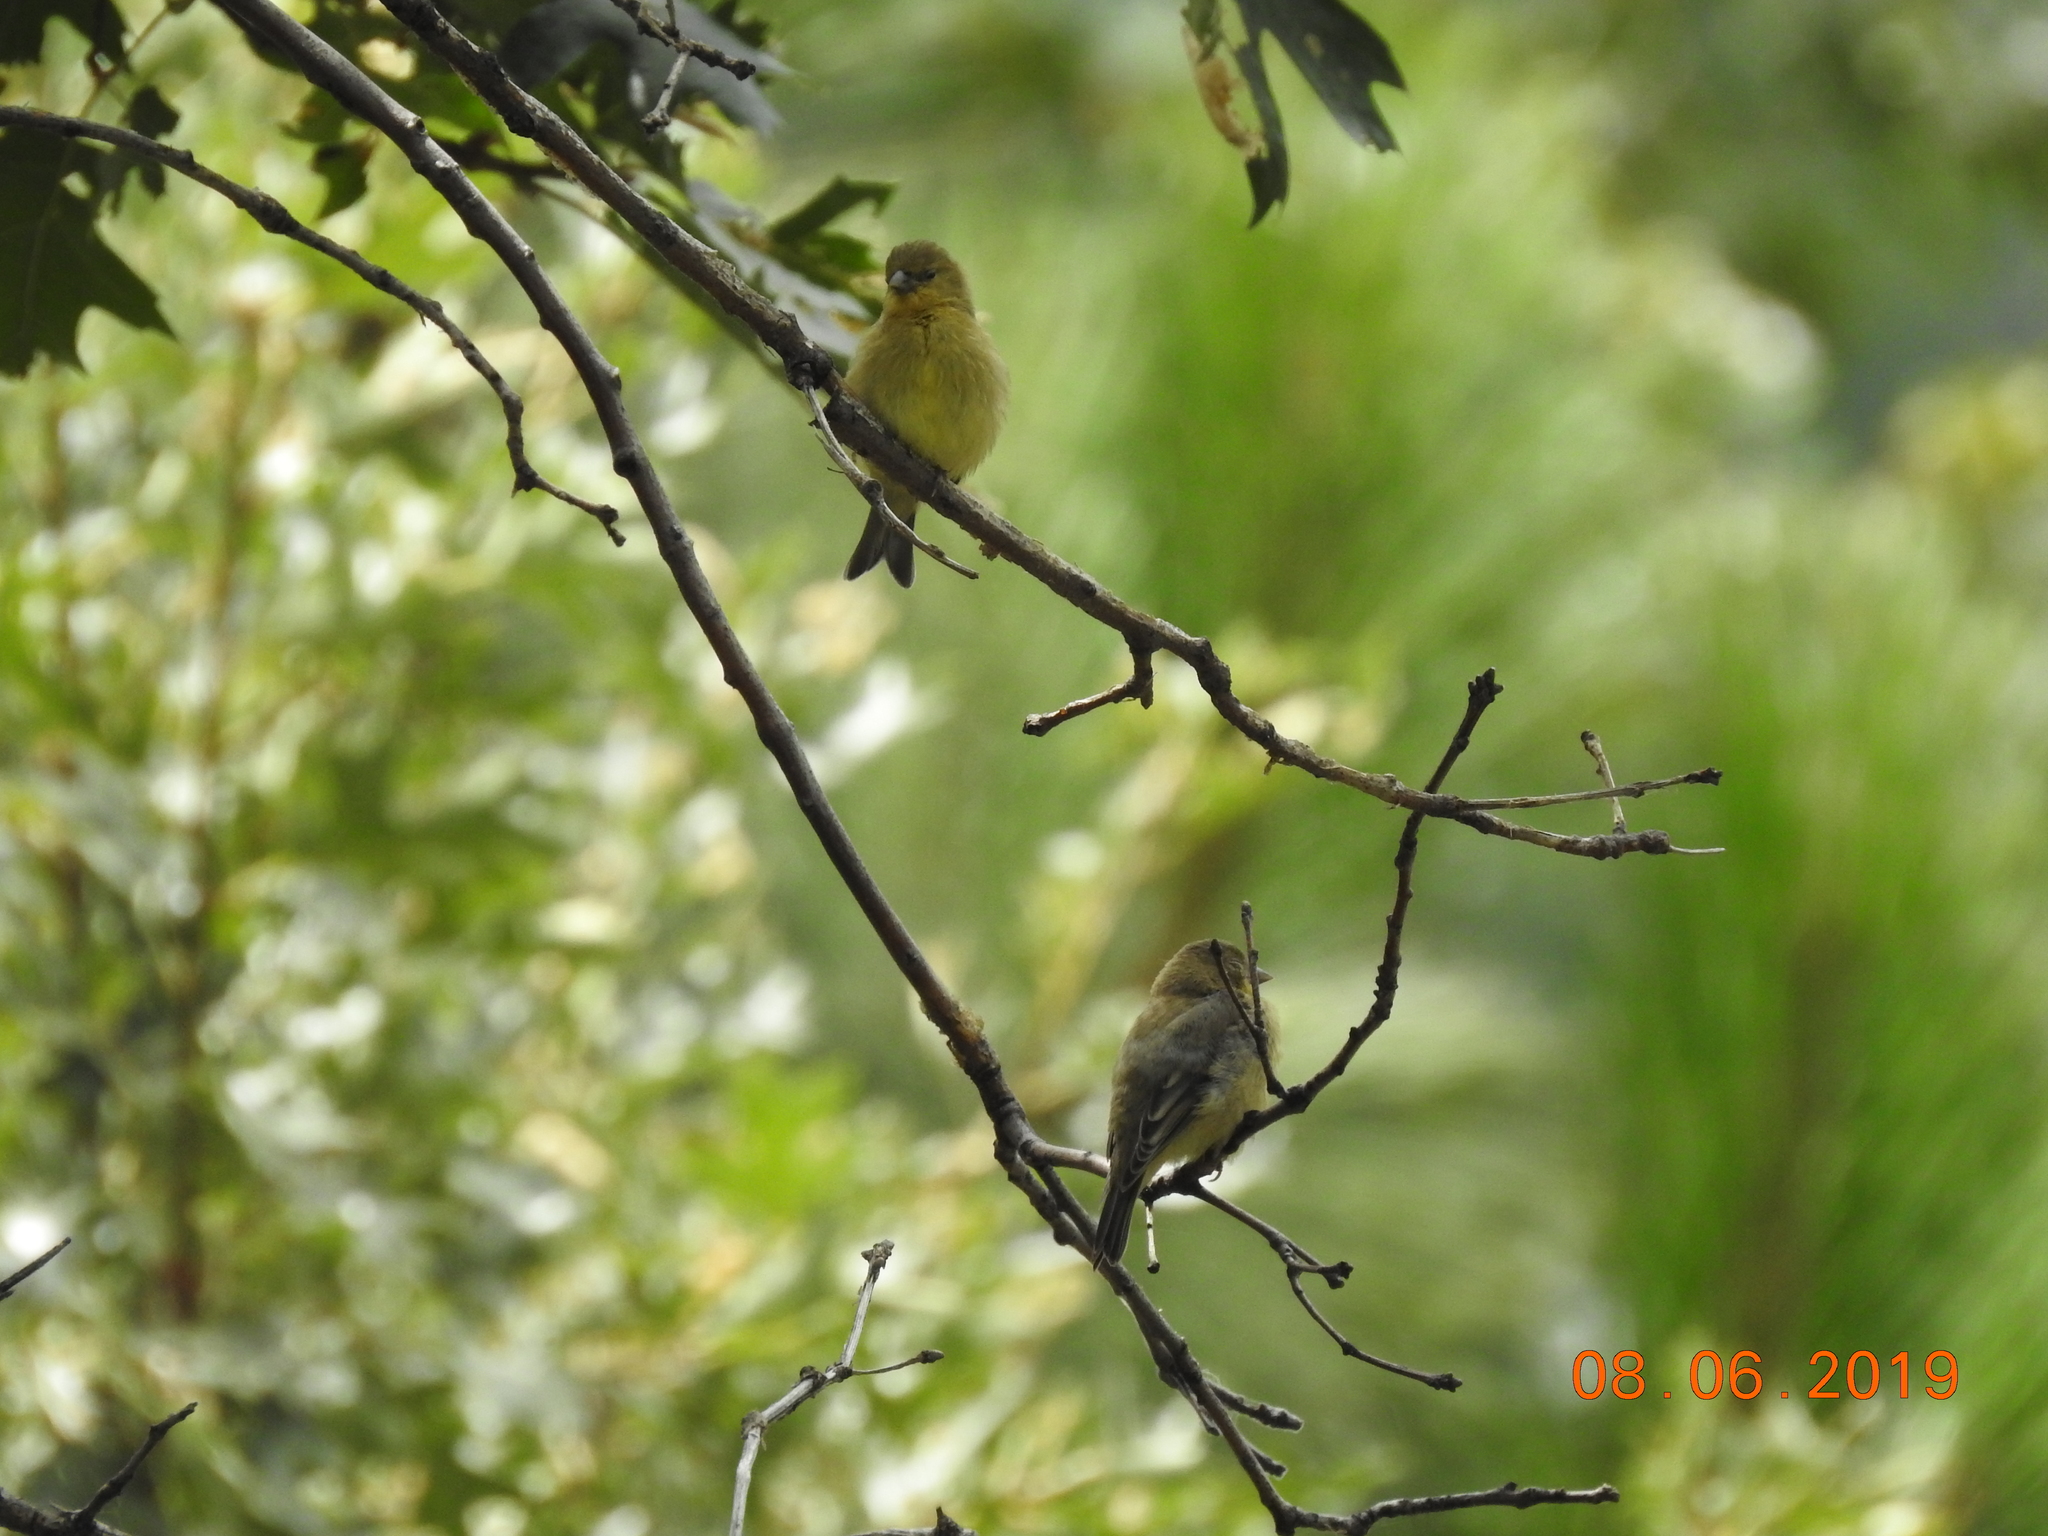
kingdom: Animalia
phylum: Chordata
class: Aves
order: Passeriformes
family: Fringillidae
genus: Spinus
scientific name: Spinus psaltria
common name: Lesser goldfinch
